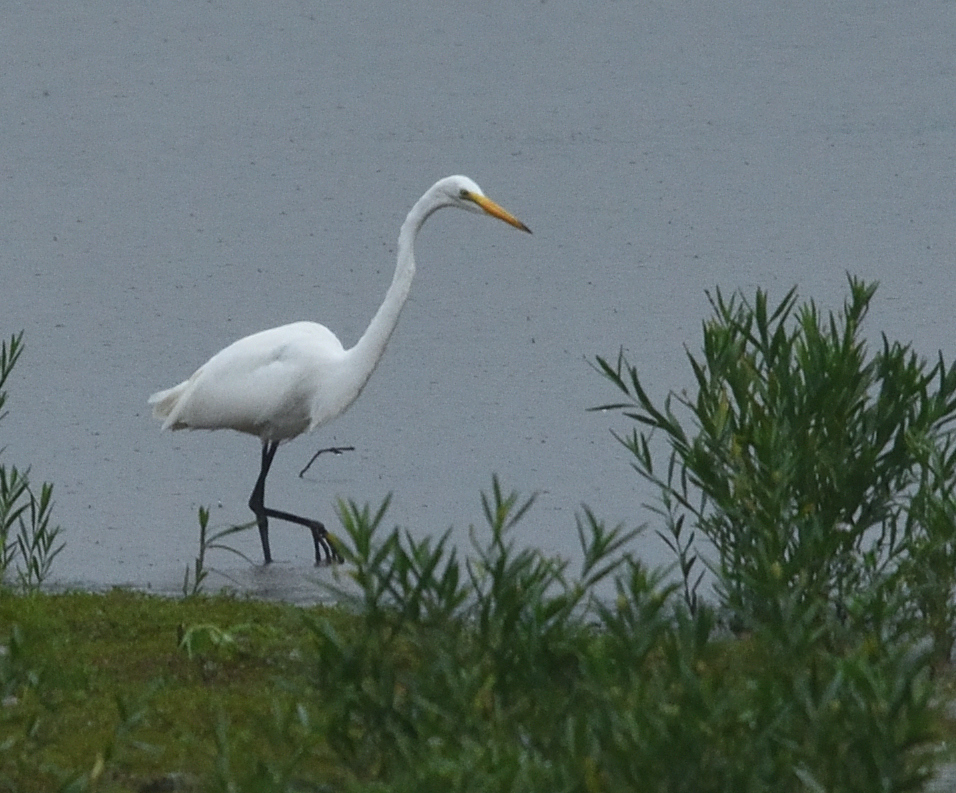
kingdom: Animalia
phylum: Chordata
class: Aves
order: Pelecaniformes
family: Ardeidae
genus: Ardea
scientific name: Ardea alba
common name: Great egret
